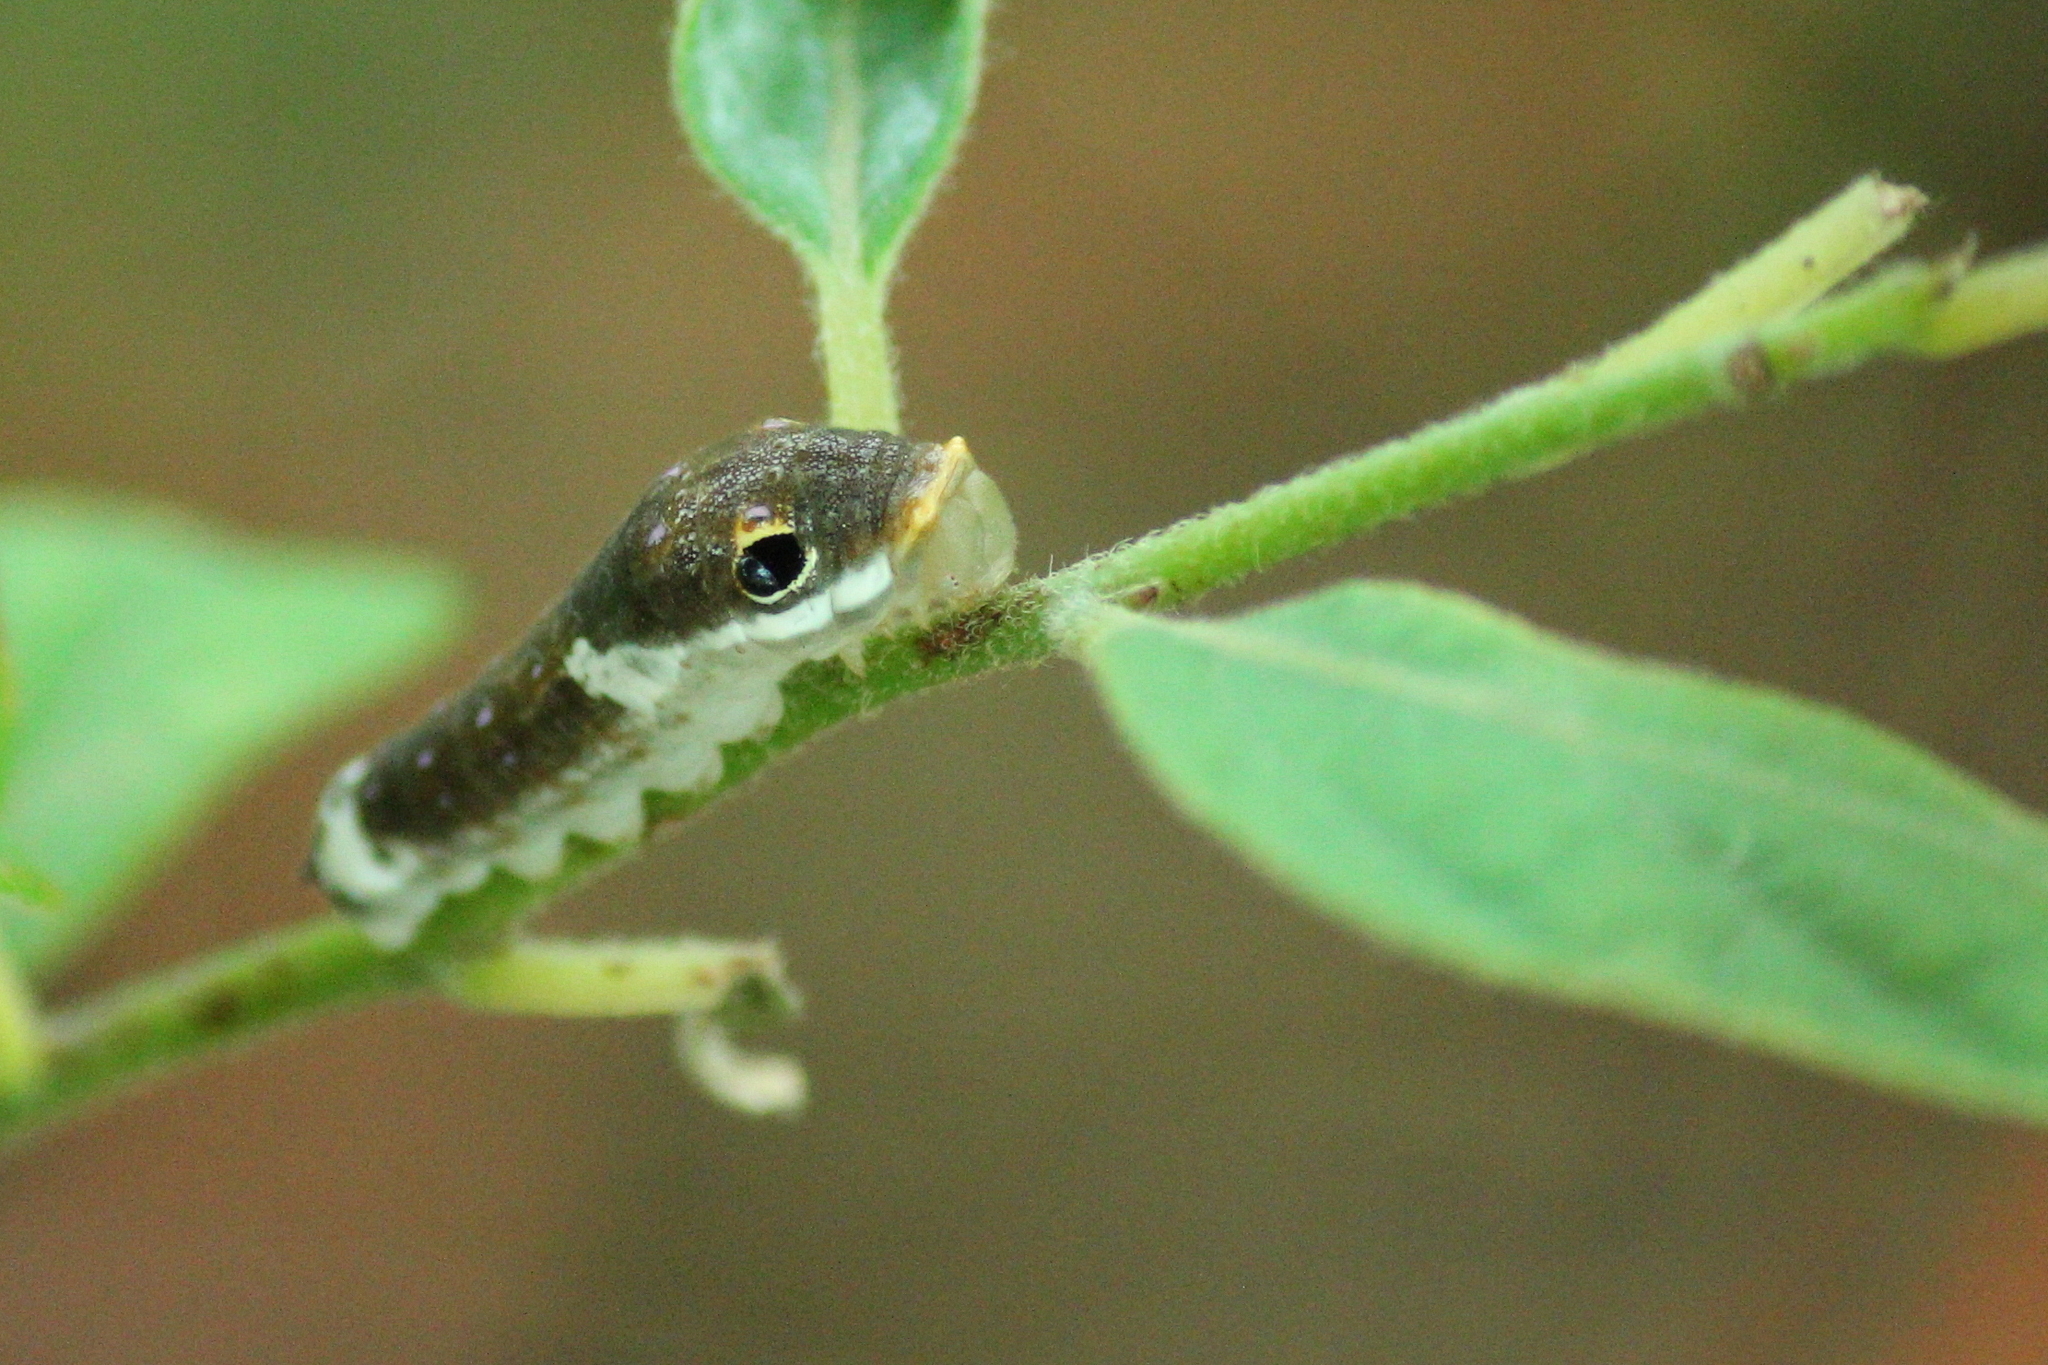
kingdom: Animalia
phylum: Arthropoda
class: Insecta
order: Lepidoptera
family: Papilionidae
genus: Papilio
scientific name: Papilio troilus
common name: Spicebush swallowtail
